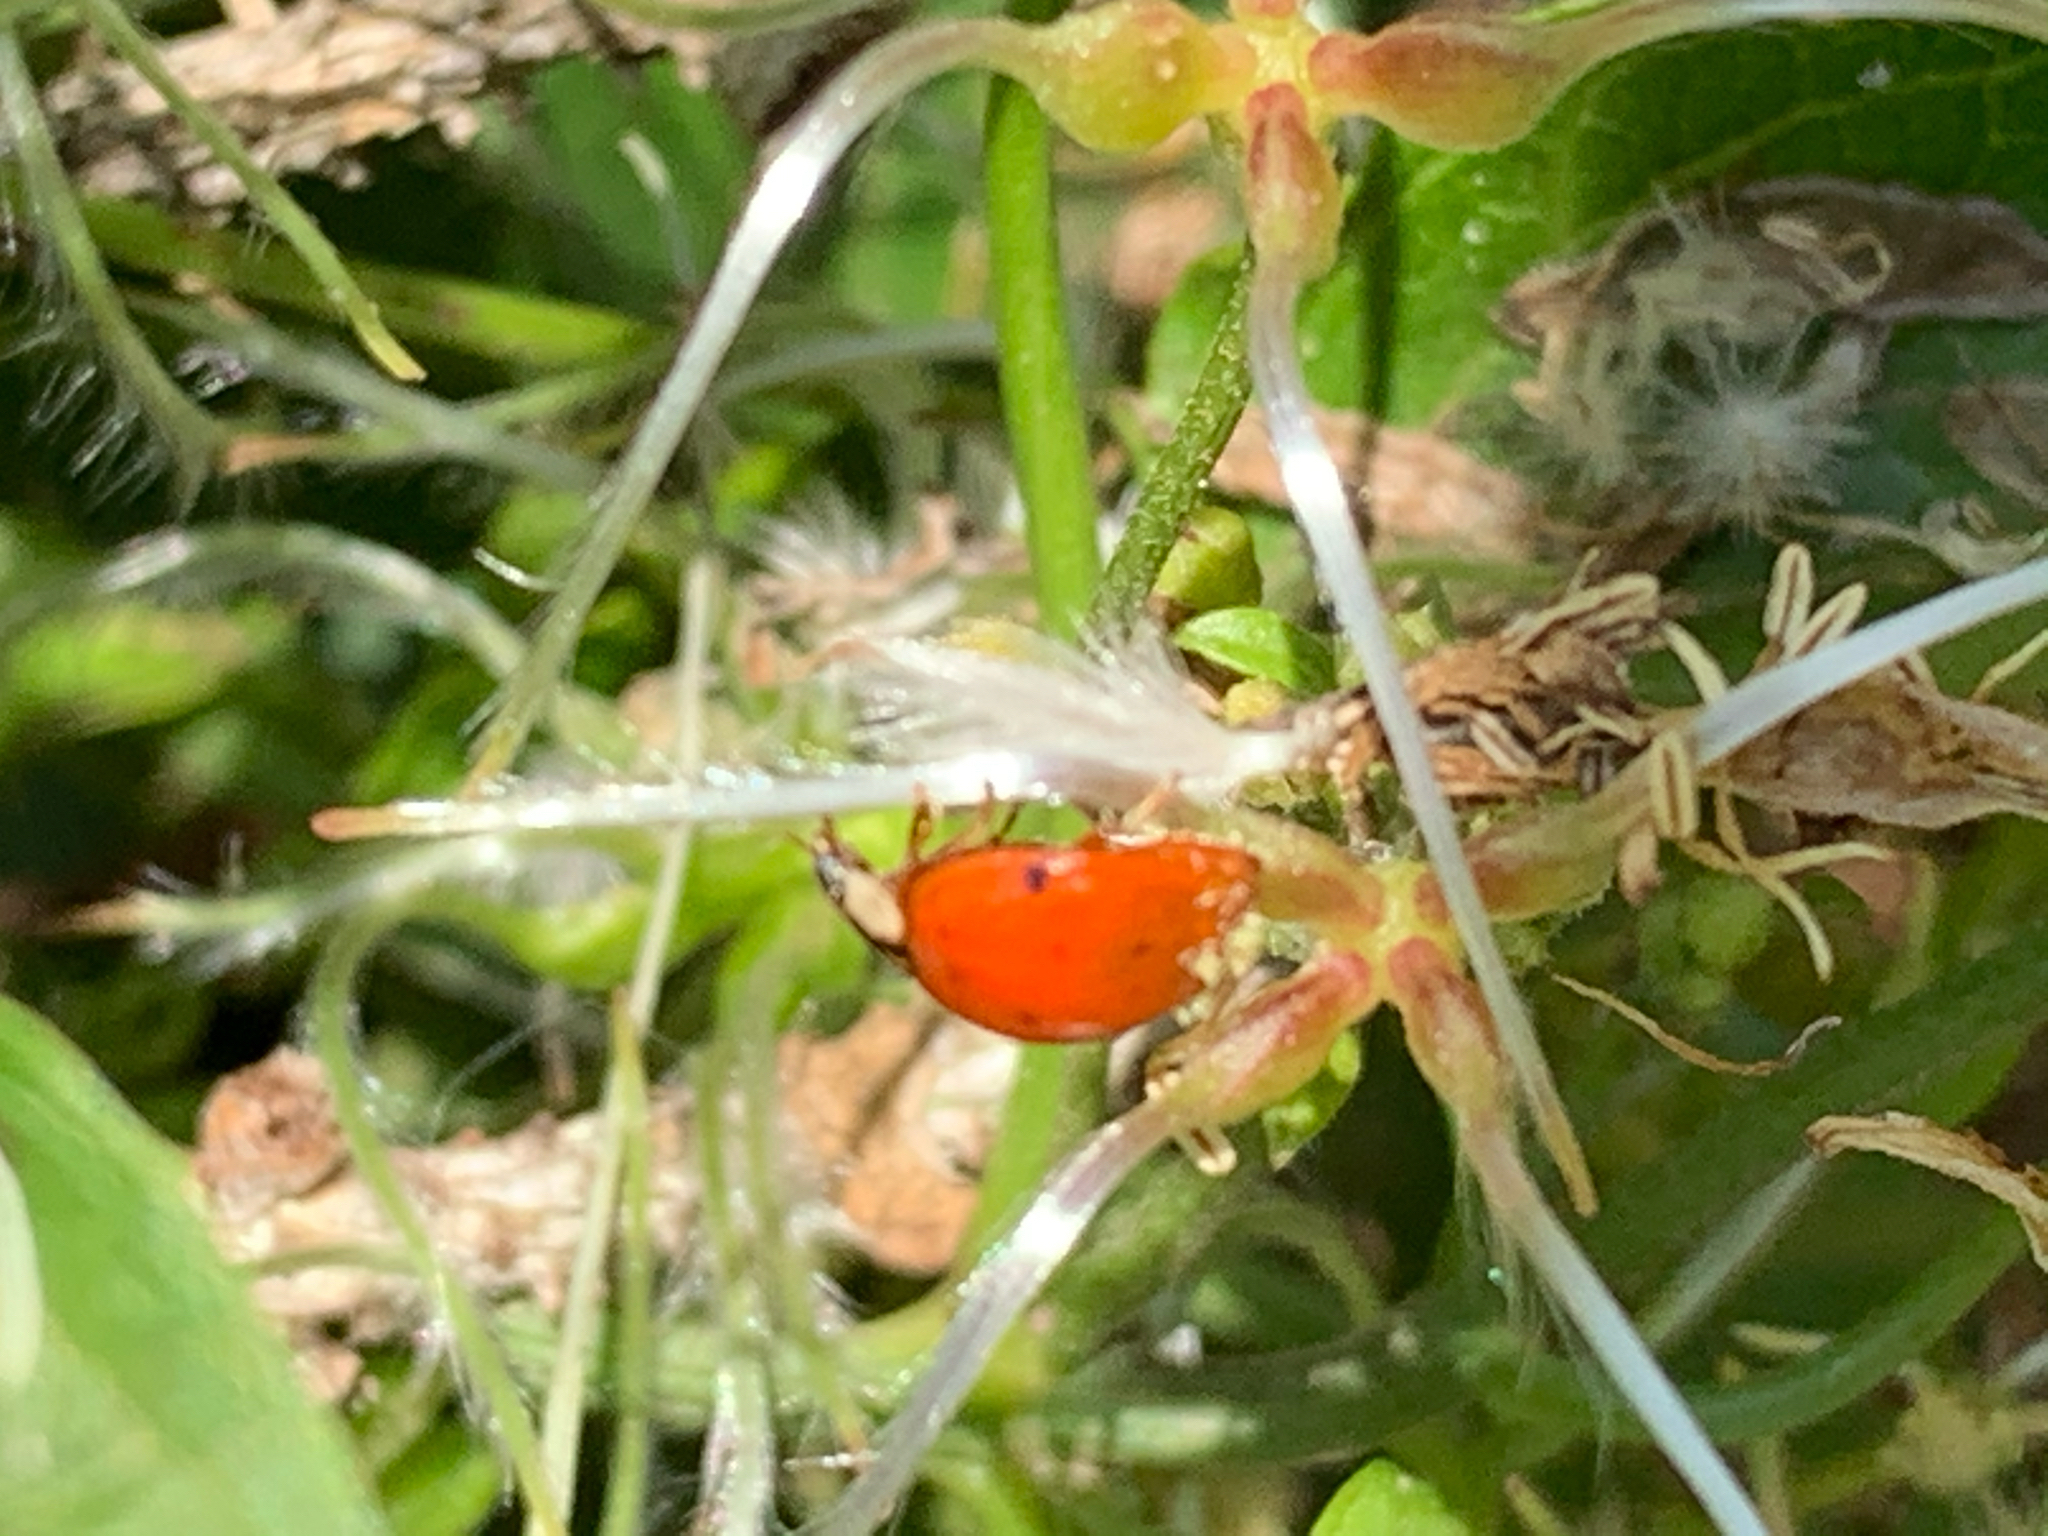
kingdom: Animalia
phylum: Arthropoda
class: Insecta
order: Coleoptera
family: Coccinellidae
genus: Harmonia
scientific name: Harmonia axyridis
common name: Harlequin ladybird
